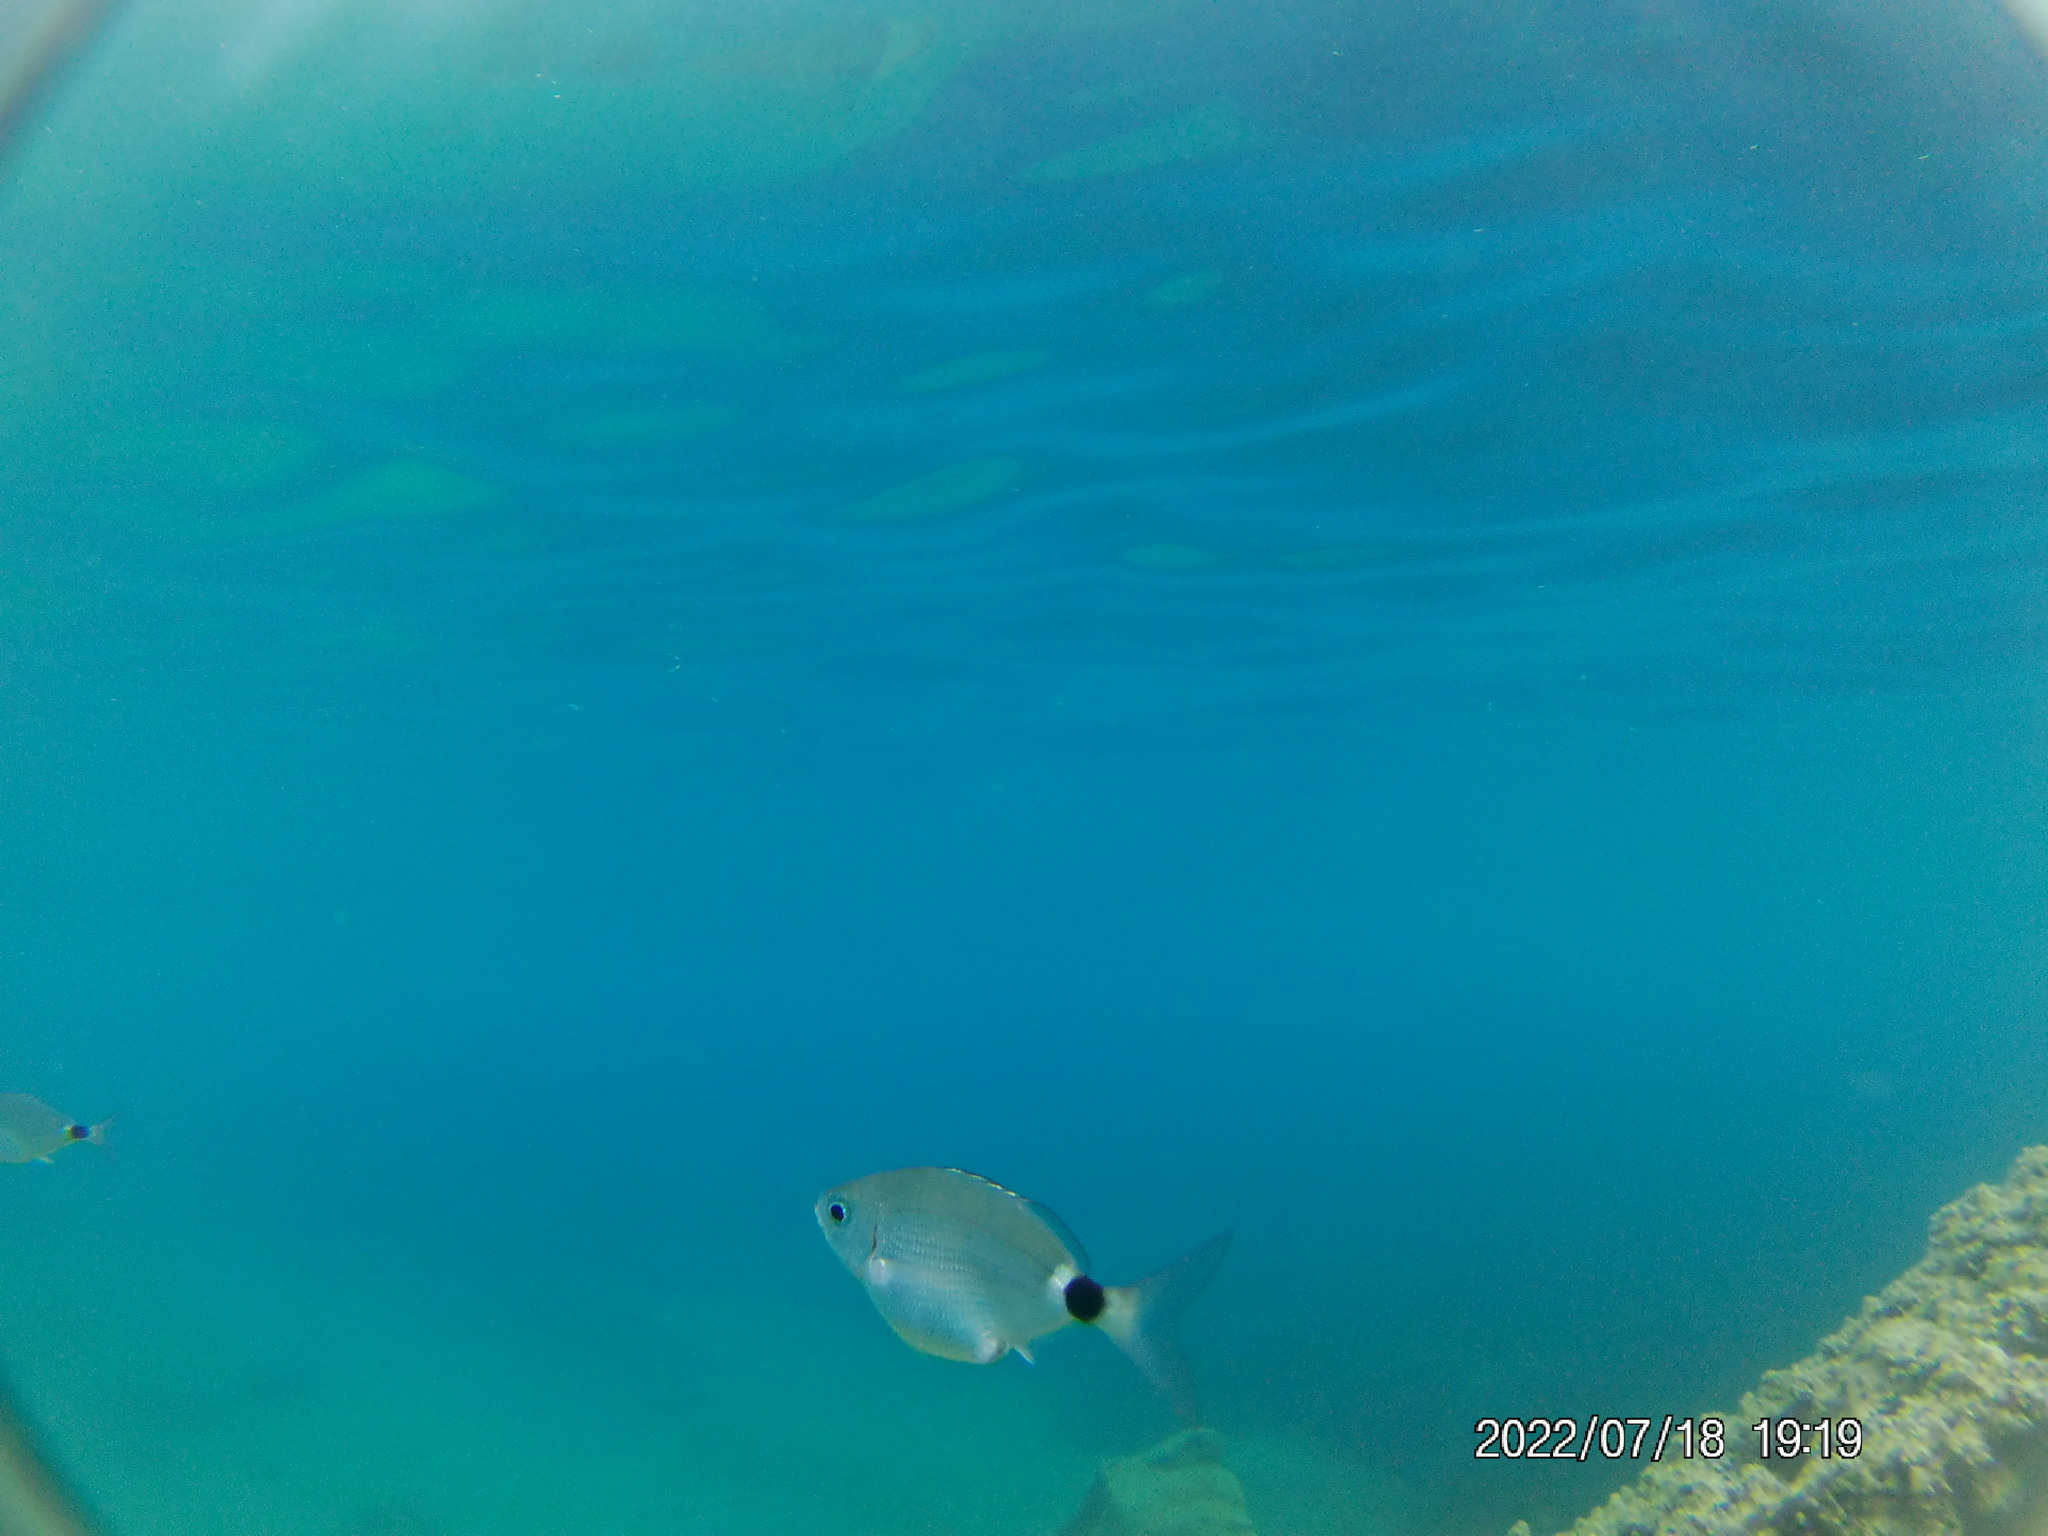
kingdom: Animalia
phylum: Chordata
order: Perciformes
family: Sparidae
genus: Oblada
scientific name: Oblada melanura
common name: Saddled seabream
